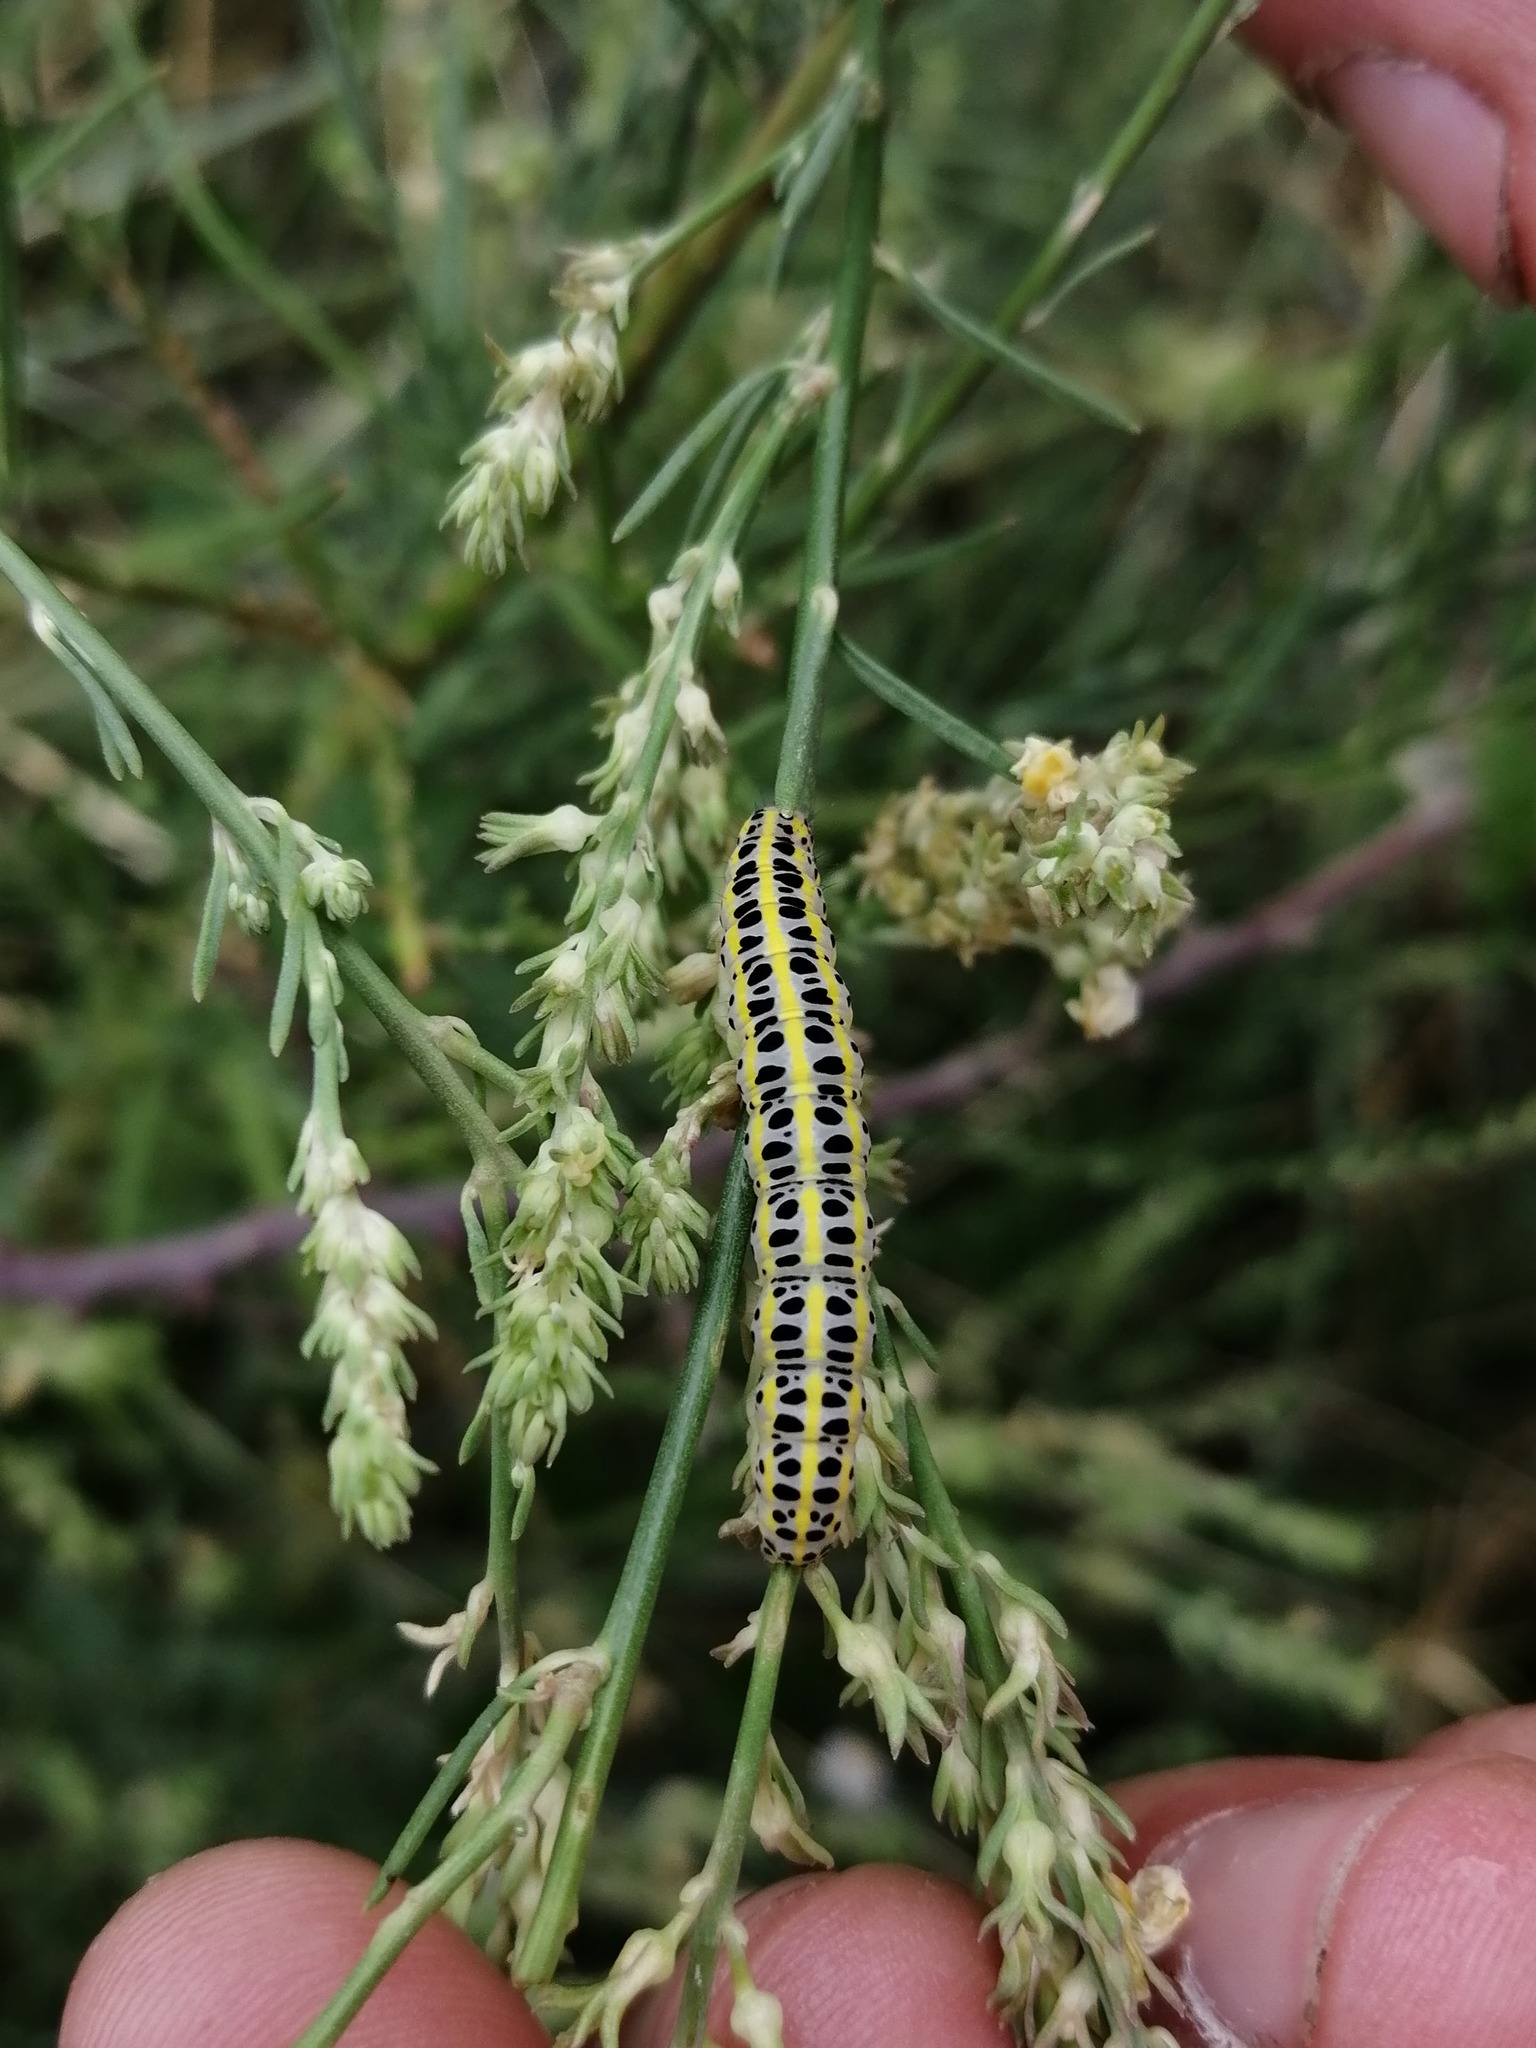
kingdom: Animalia
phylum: Arthropoda
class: Insecta
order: Lepidoptera
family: Noctuidae
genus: Calophasia
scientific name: Calophasia lunula
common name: Toadflax brocade
